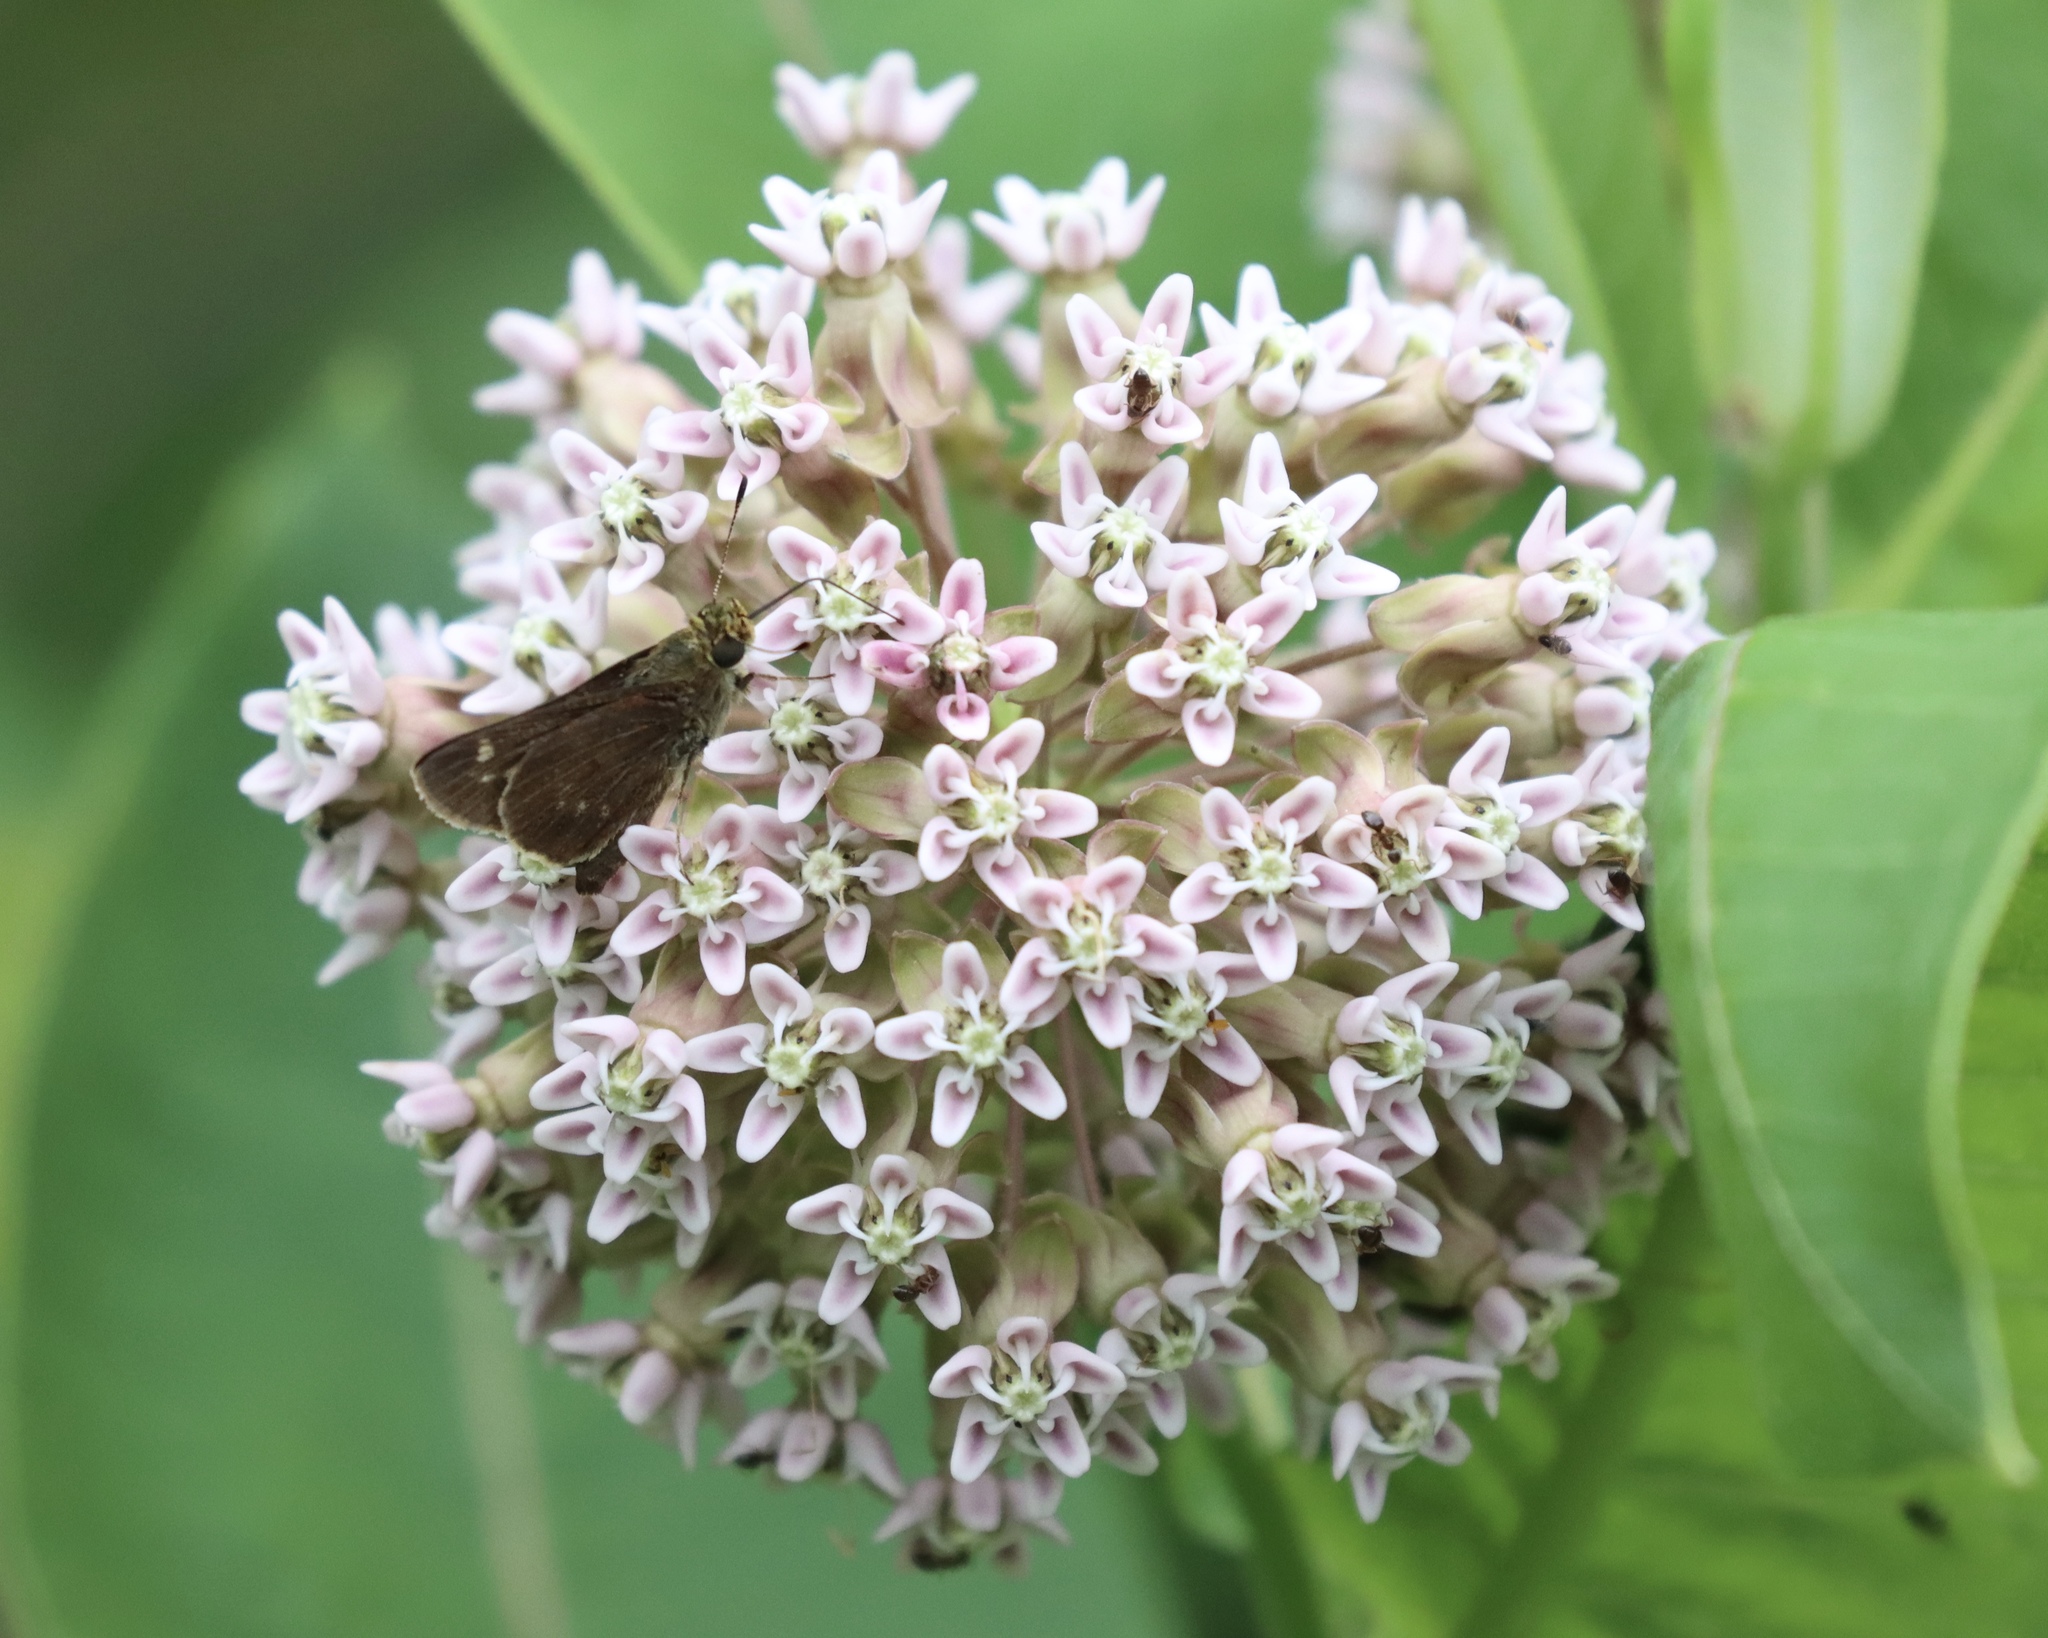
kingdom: Animalia
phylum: Arthropoda
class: Insecta
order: Lepidoptera
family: Hesperiidae
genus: Vernia
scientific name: Vernia verna
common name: Little glassywing
